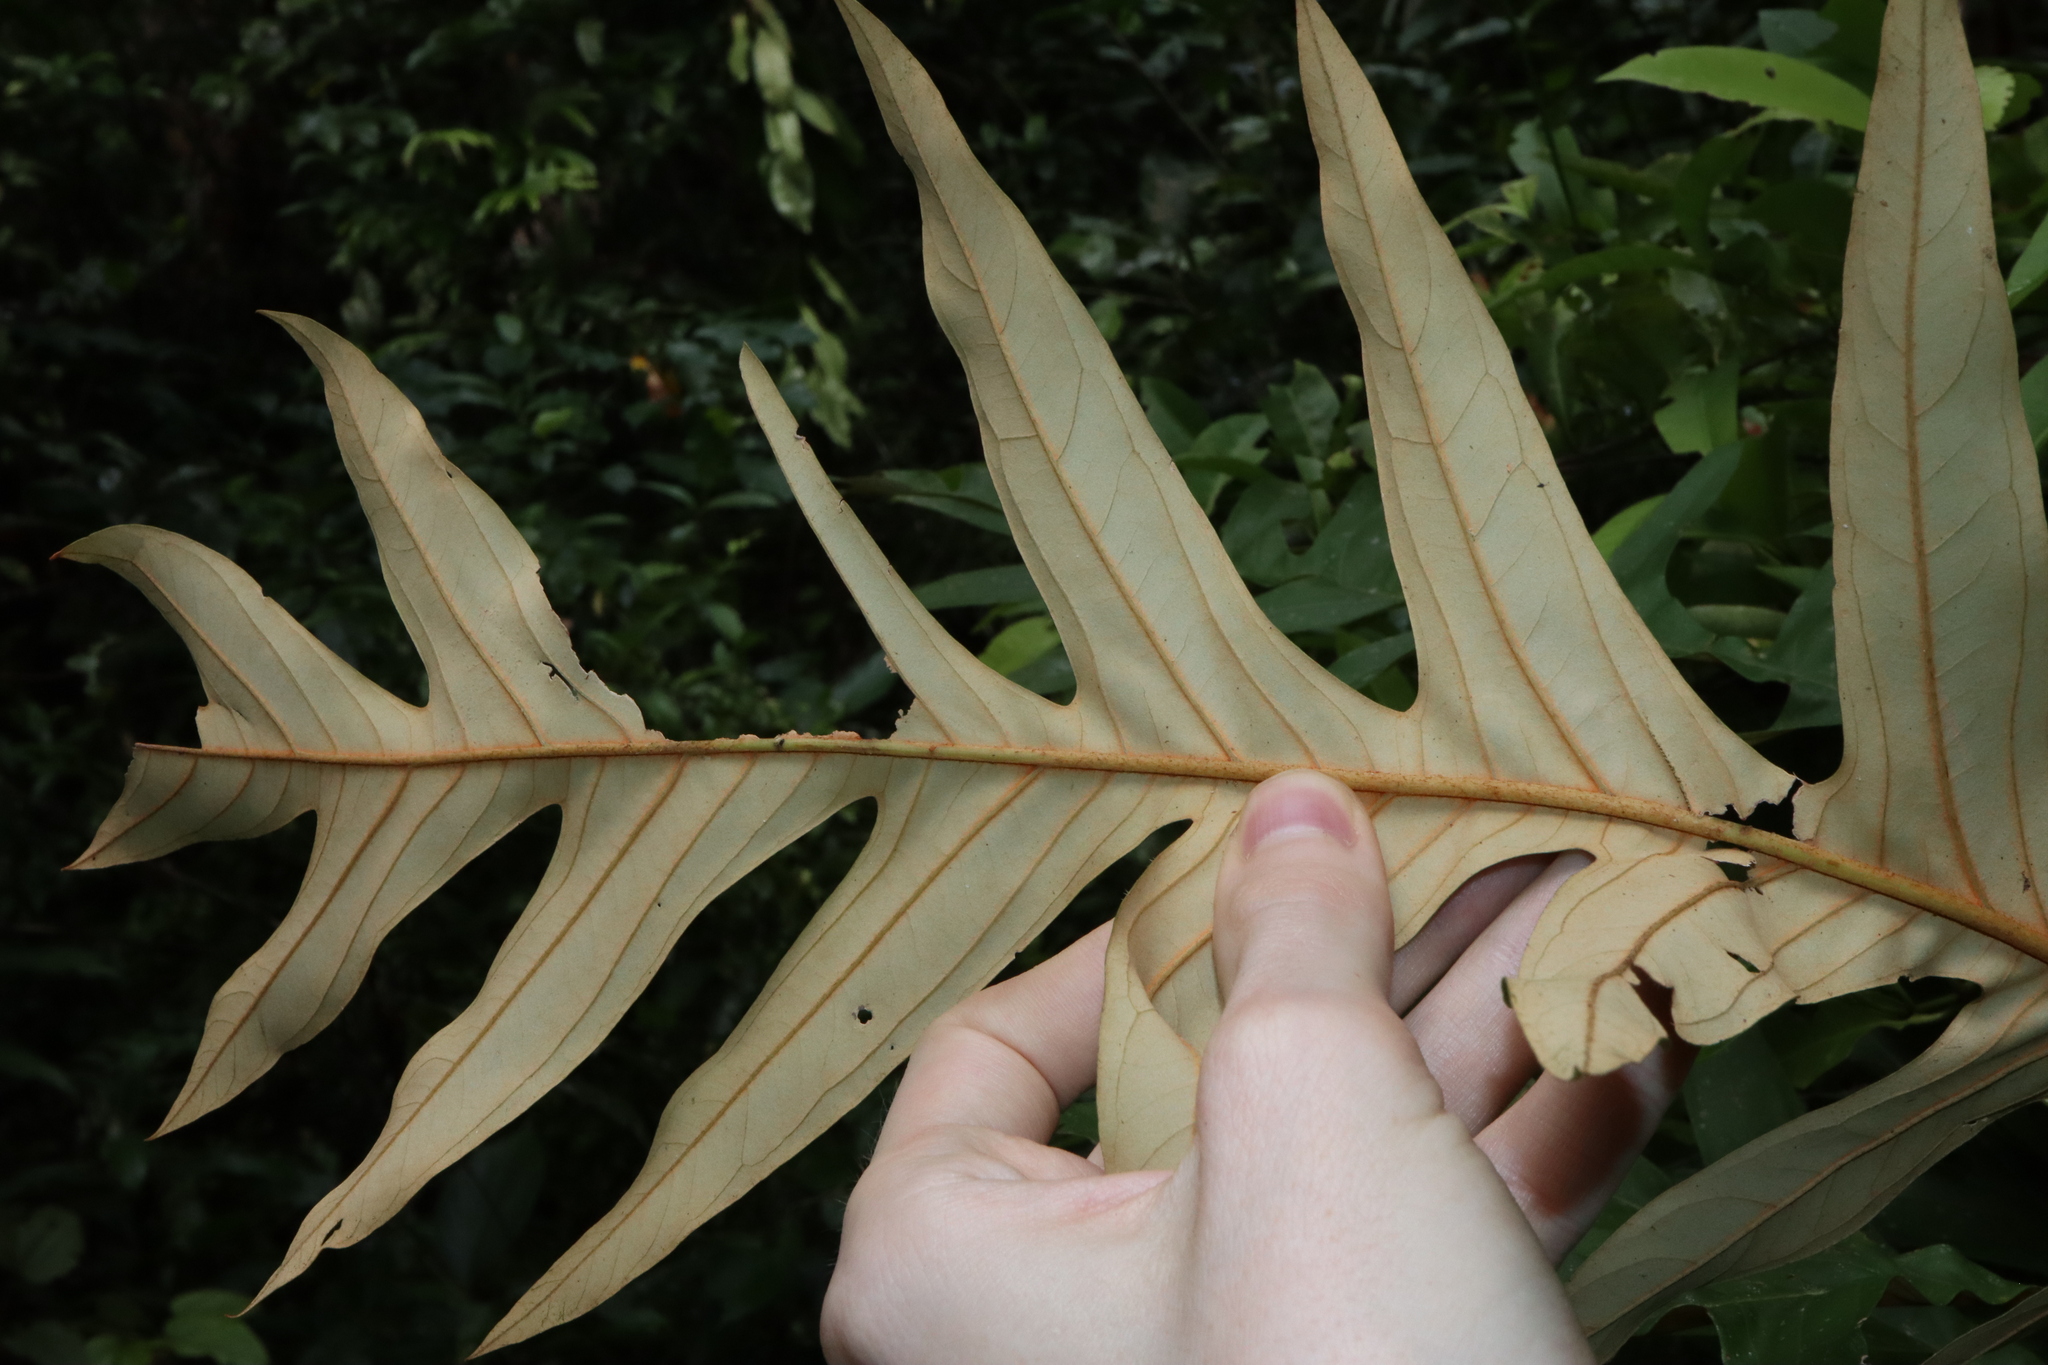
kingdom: Plantae
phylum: Tracheophyta
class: Magnoliopsida
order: Proteales
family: Proteaceae
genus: Musgravea
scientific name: Musgravea heterophylla
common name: Briar oak
